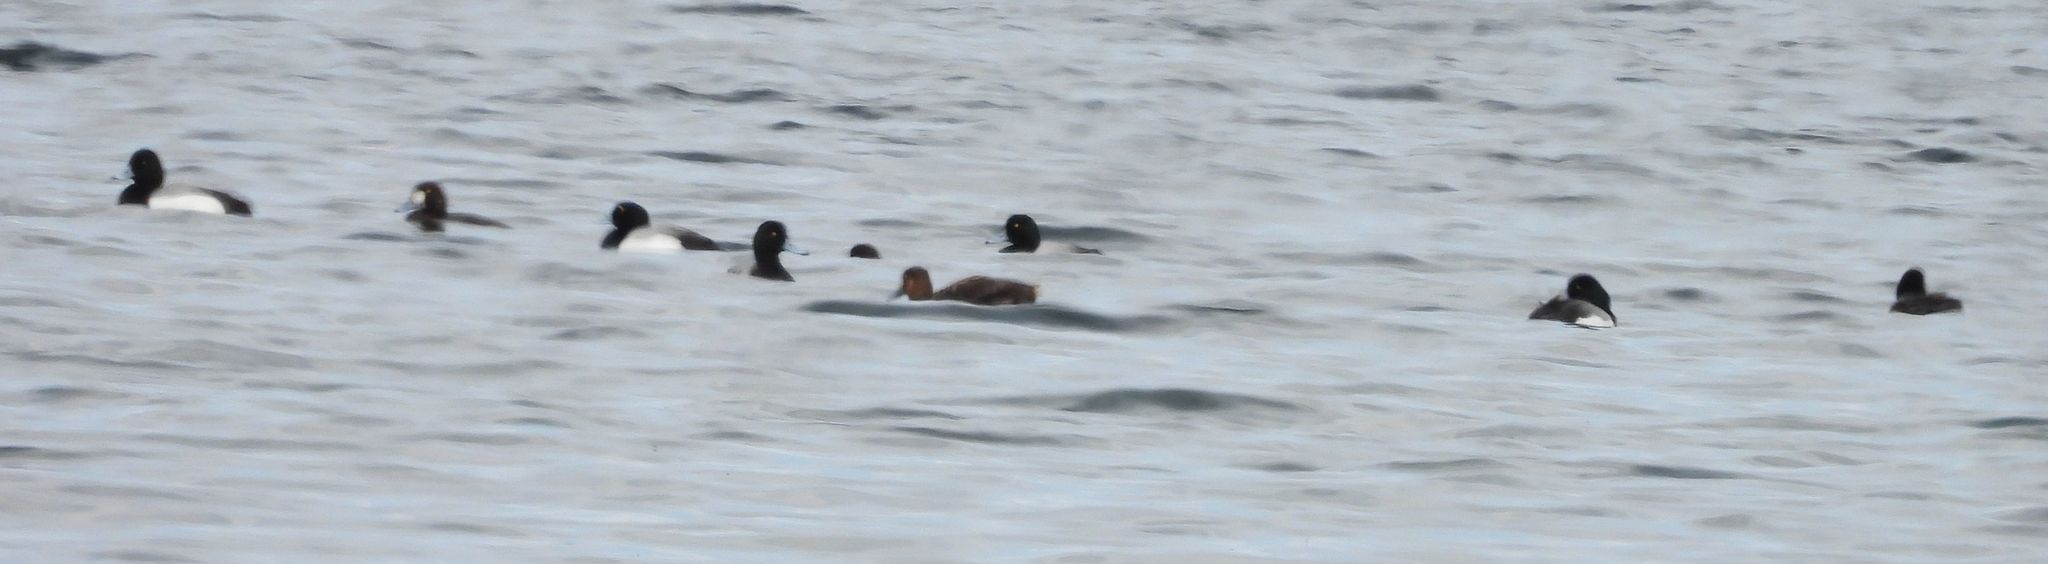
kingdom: Animalia
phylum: Chordata
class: Aves
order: Anseriformes
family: Anatidae
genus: Aythya
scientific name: Aythya marila
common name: Greater scaup
